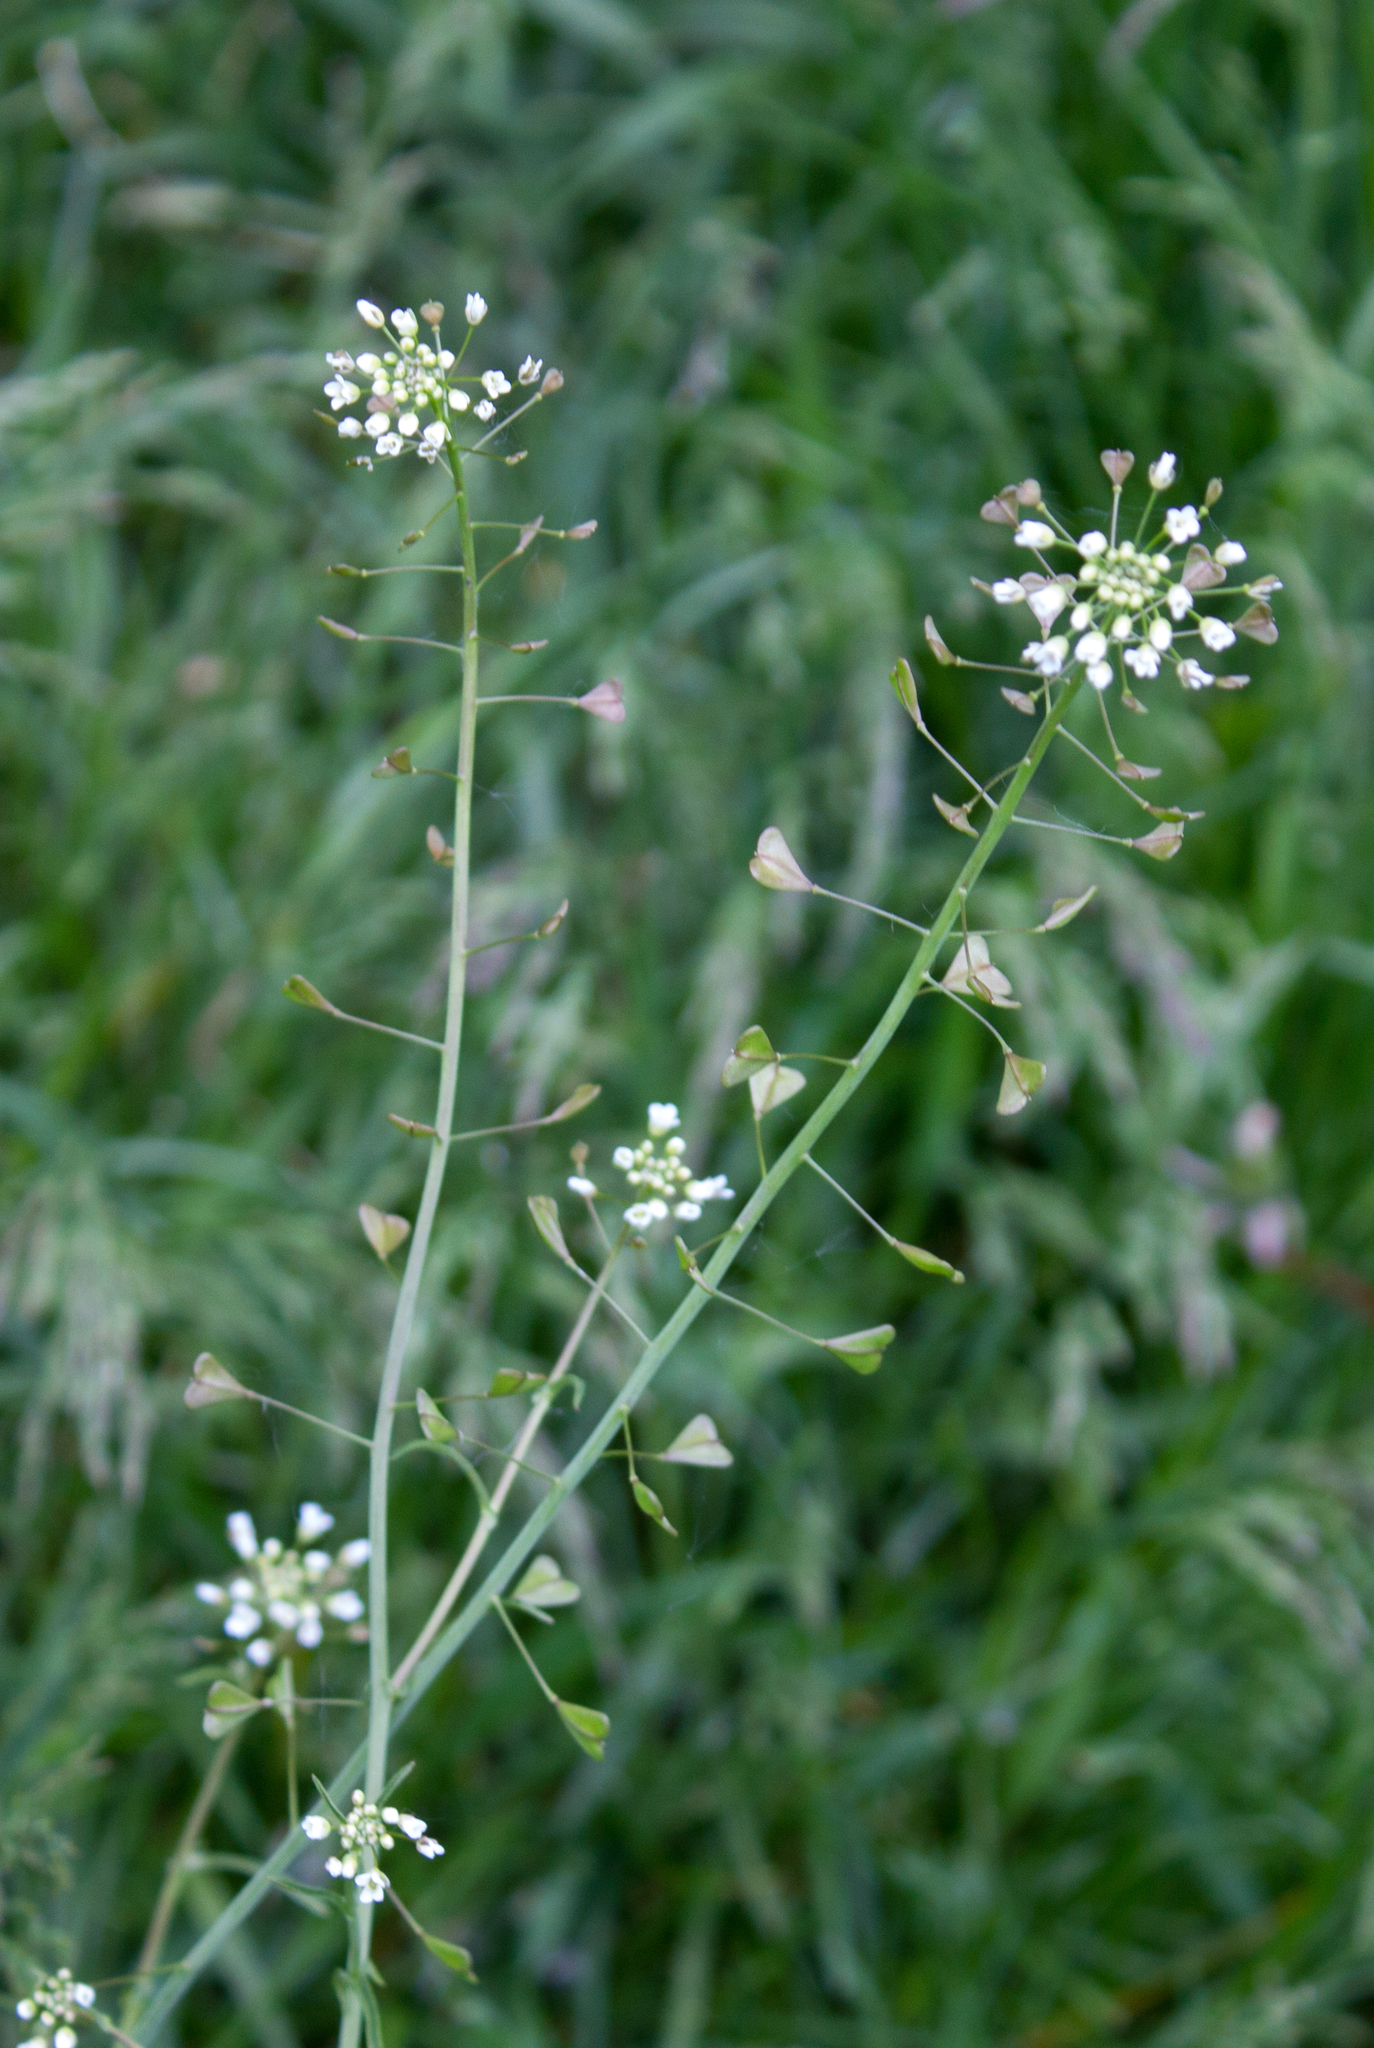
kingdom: Plantae
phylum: Tracheophyta
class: Magnoliopsida
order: Brassicales
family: Brassicaceae
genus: Capsella
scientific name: Capsella bursa-pastoris
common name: Shepherd's purse
